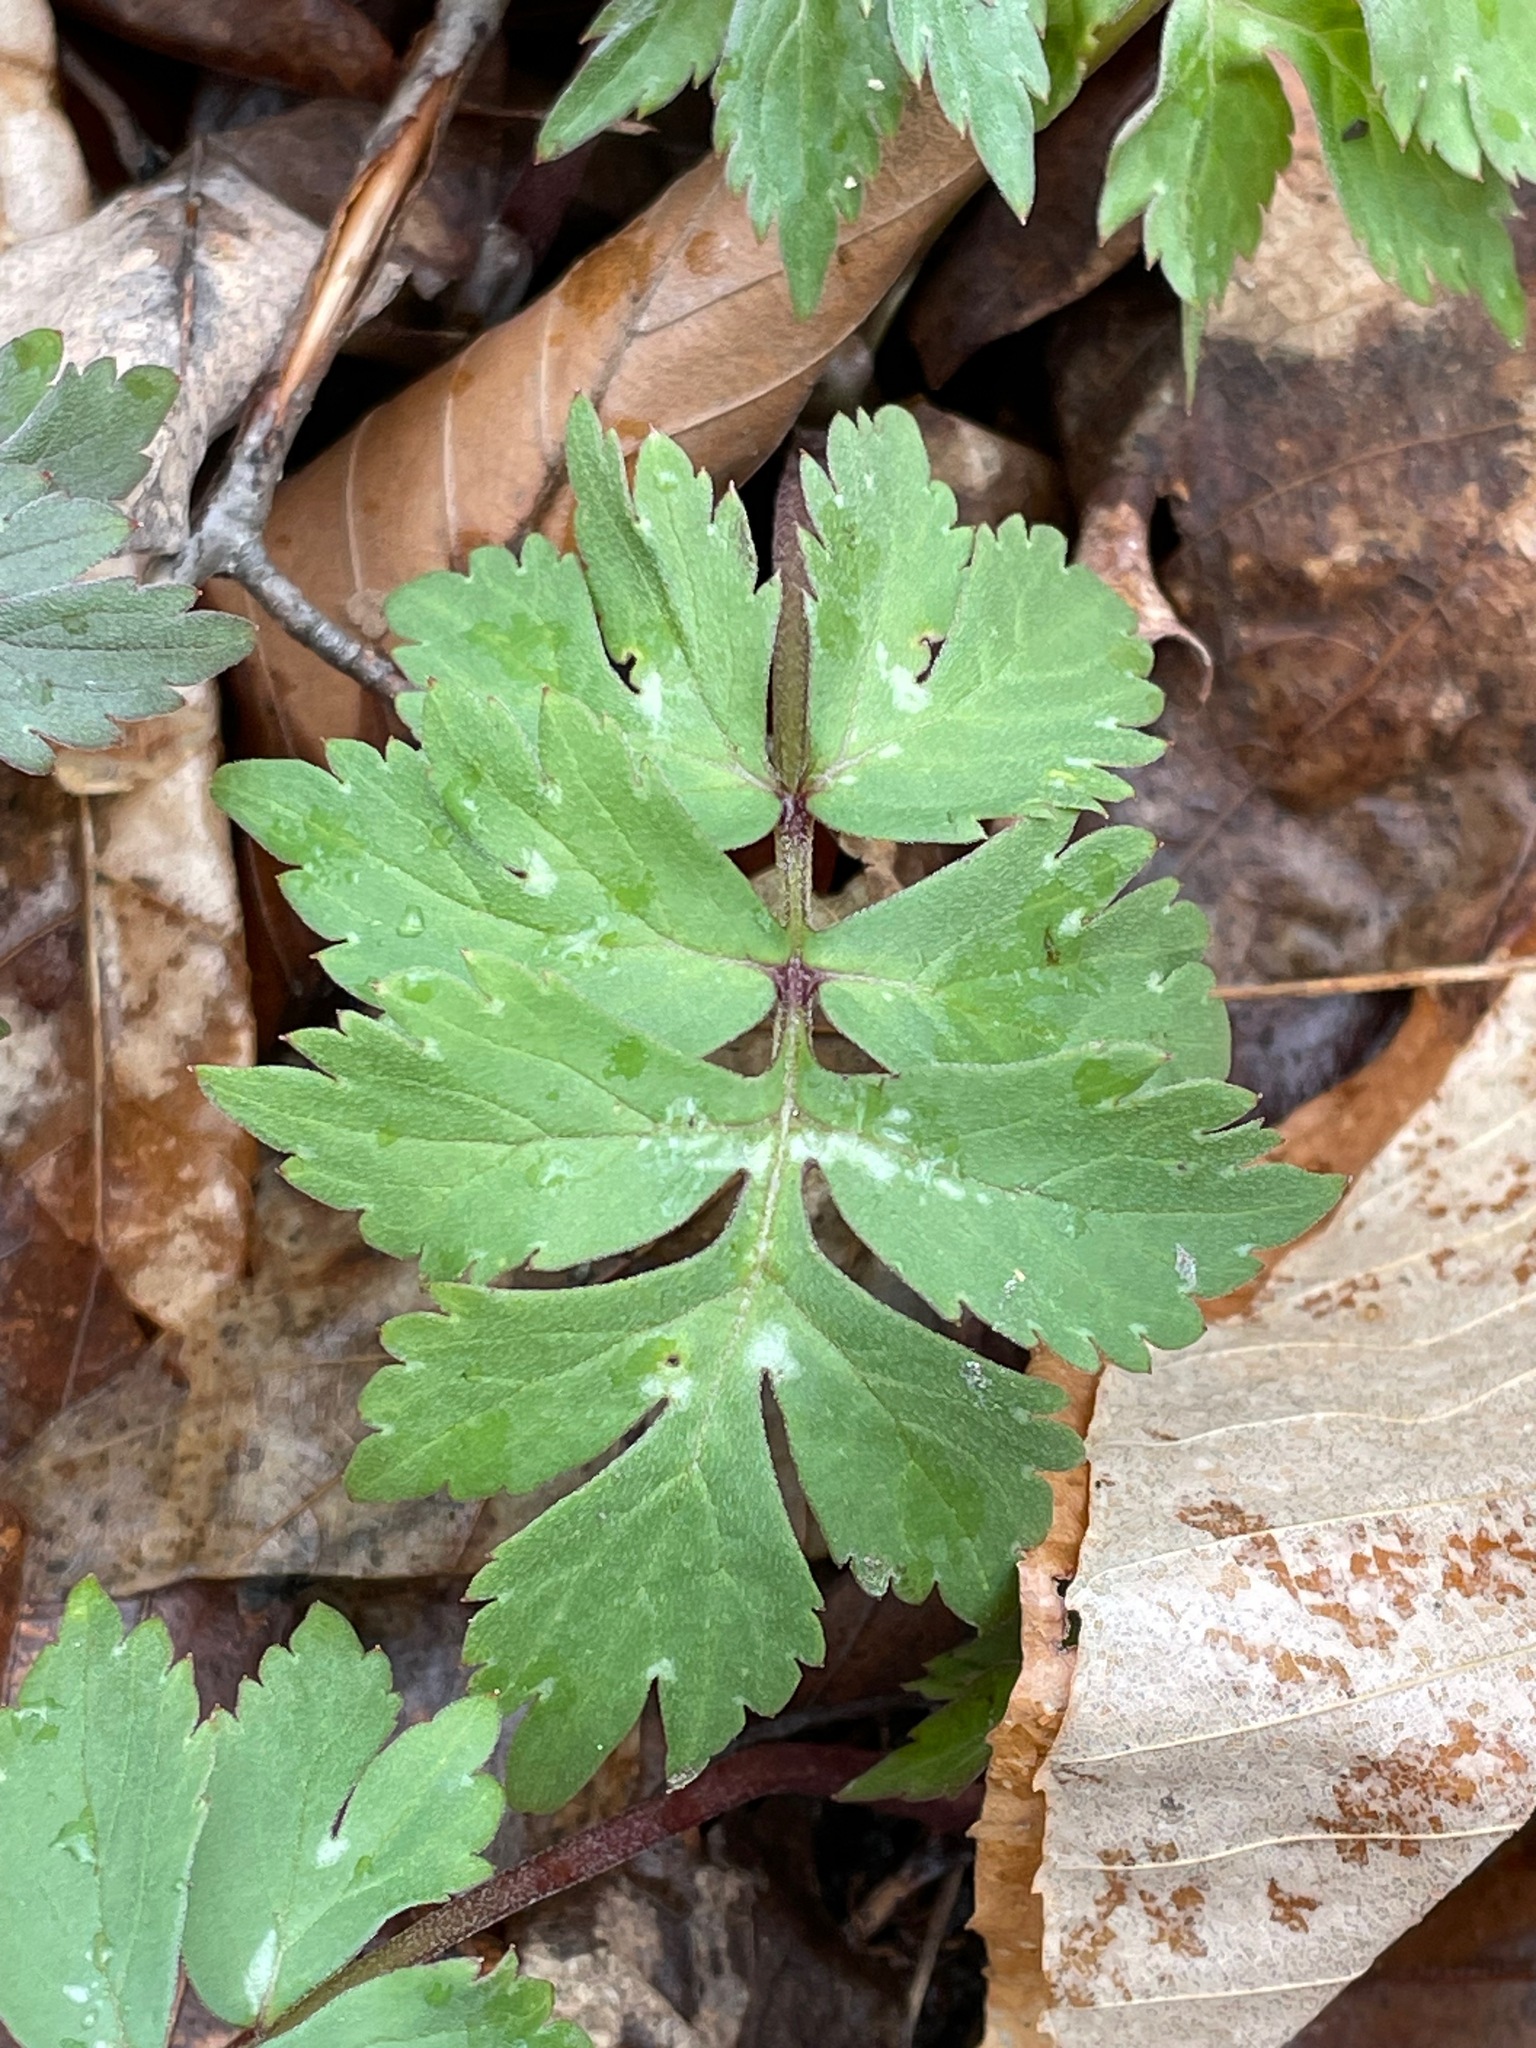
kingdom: Plantae
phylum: Tracheophyta
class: Magnoliopsida
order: Boraginales
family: Hydrophyllaceae
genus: Hydrophyllum
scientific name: Hydrophyllum virginianum
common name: Virginia waterleaf
